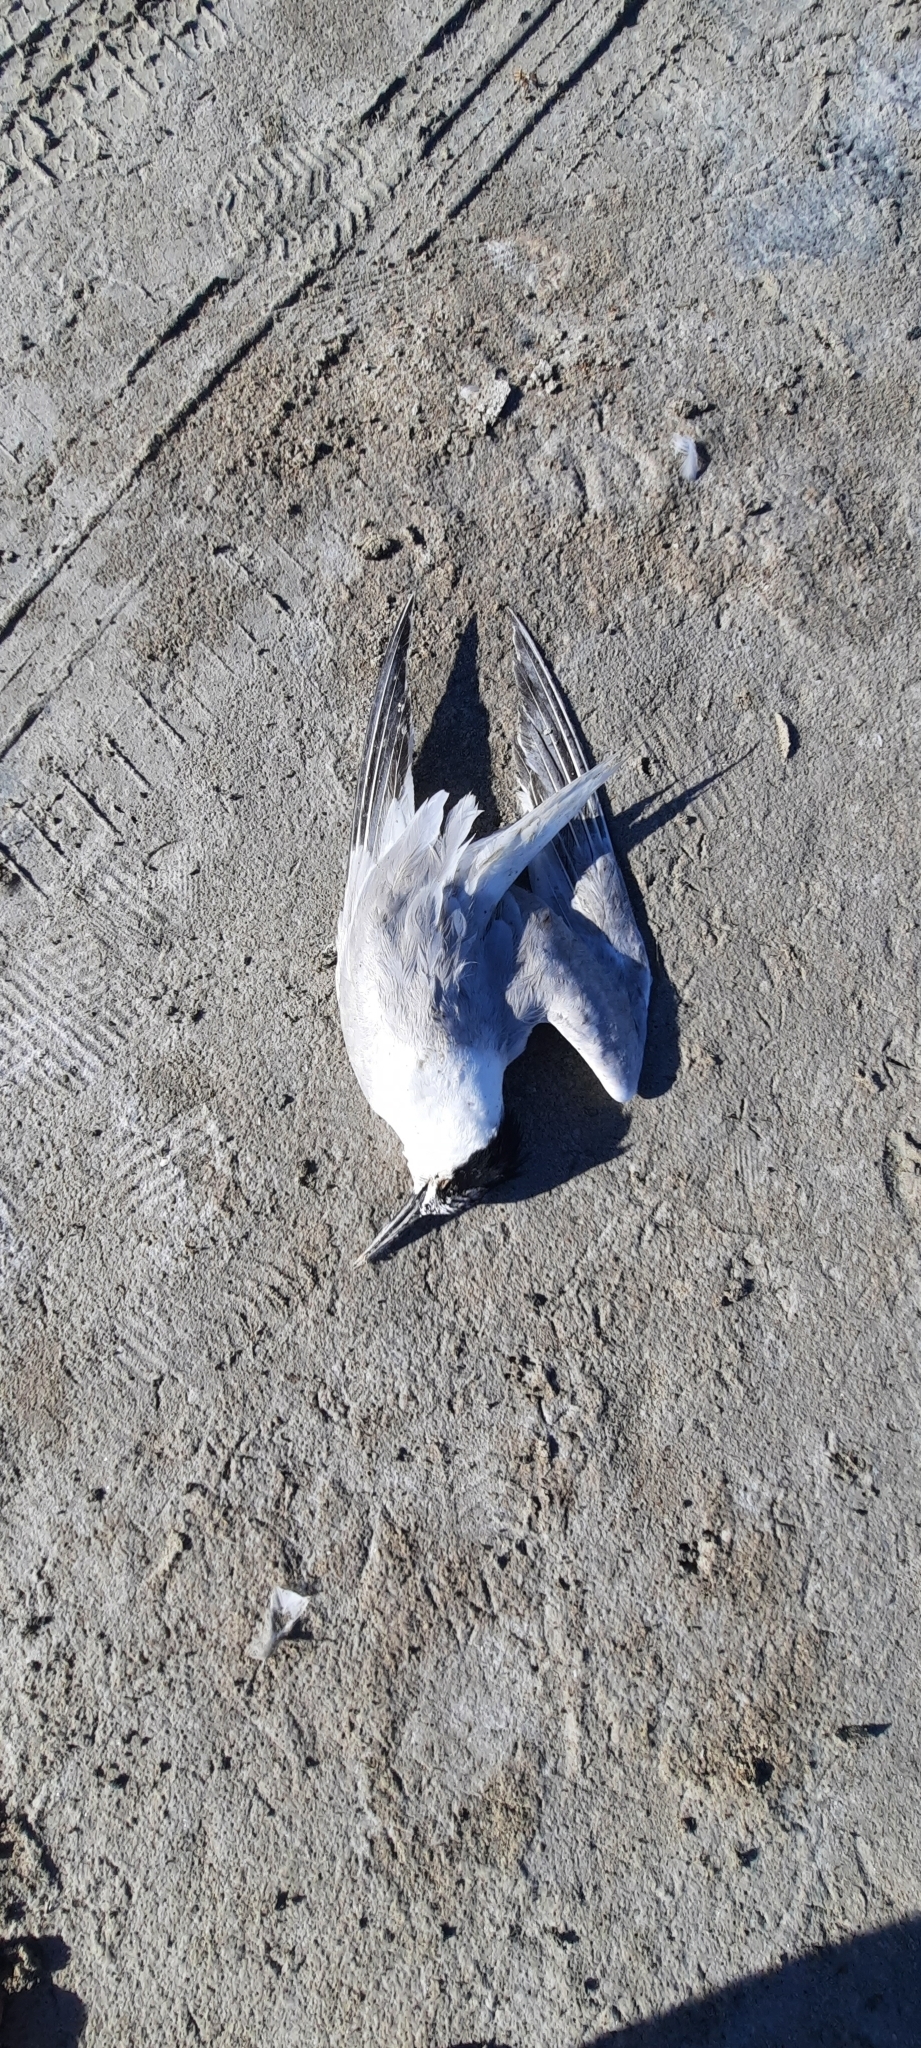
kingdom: Animalia
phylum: Chordata
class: Aves
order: Charadriiformes
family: Laridae
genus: Thalasseus
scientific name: Thalasseus sandvicensis
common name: Sandwich tern
